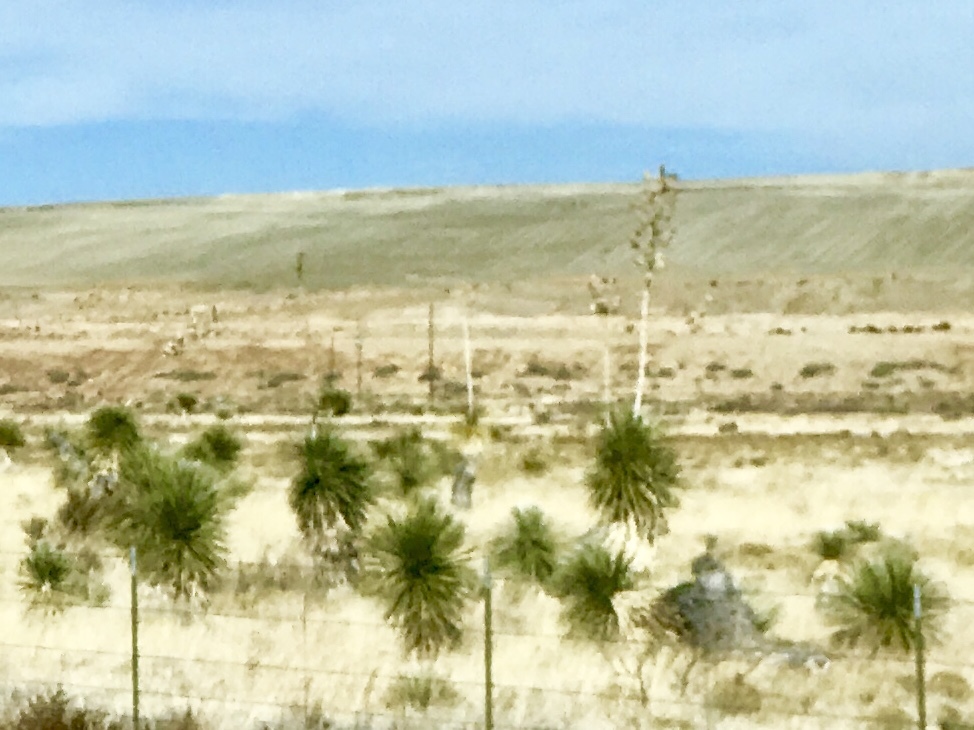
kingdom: Plantae
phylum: Tracheophyta
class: Liliopsida
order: Asparagales
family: Asparagaceae
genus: Yucca
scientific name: Yucca elata
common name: Palmella
